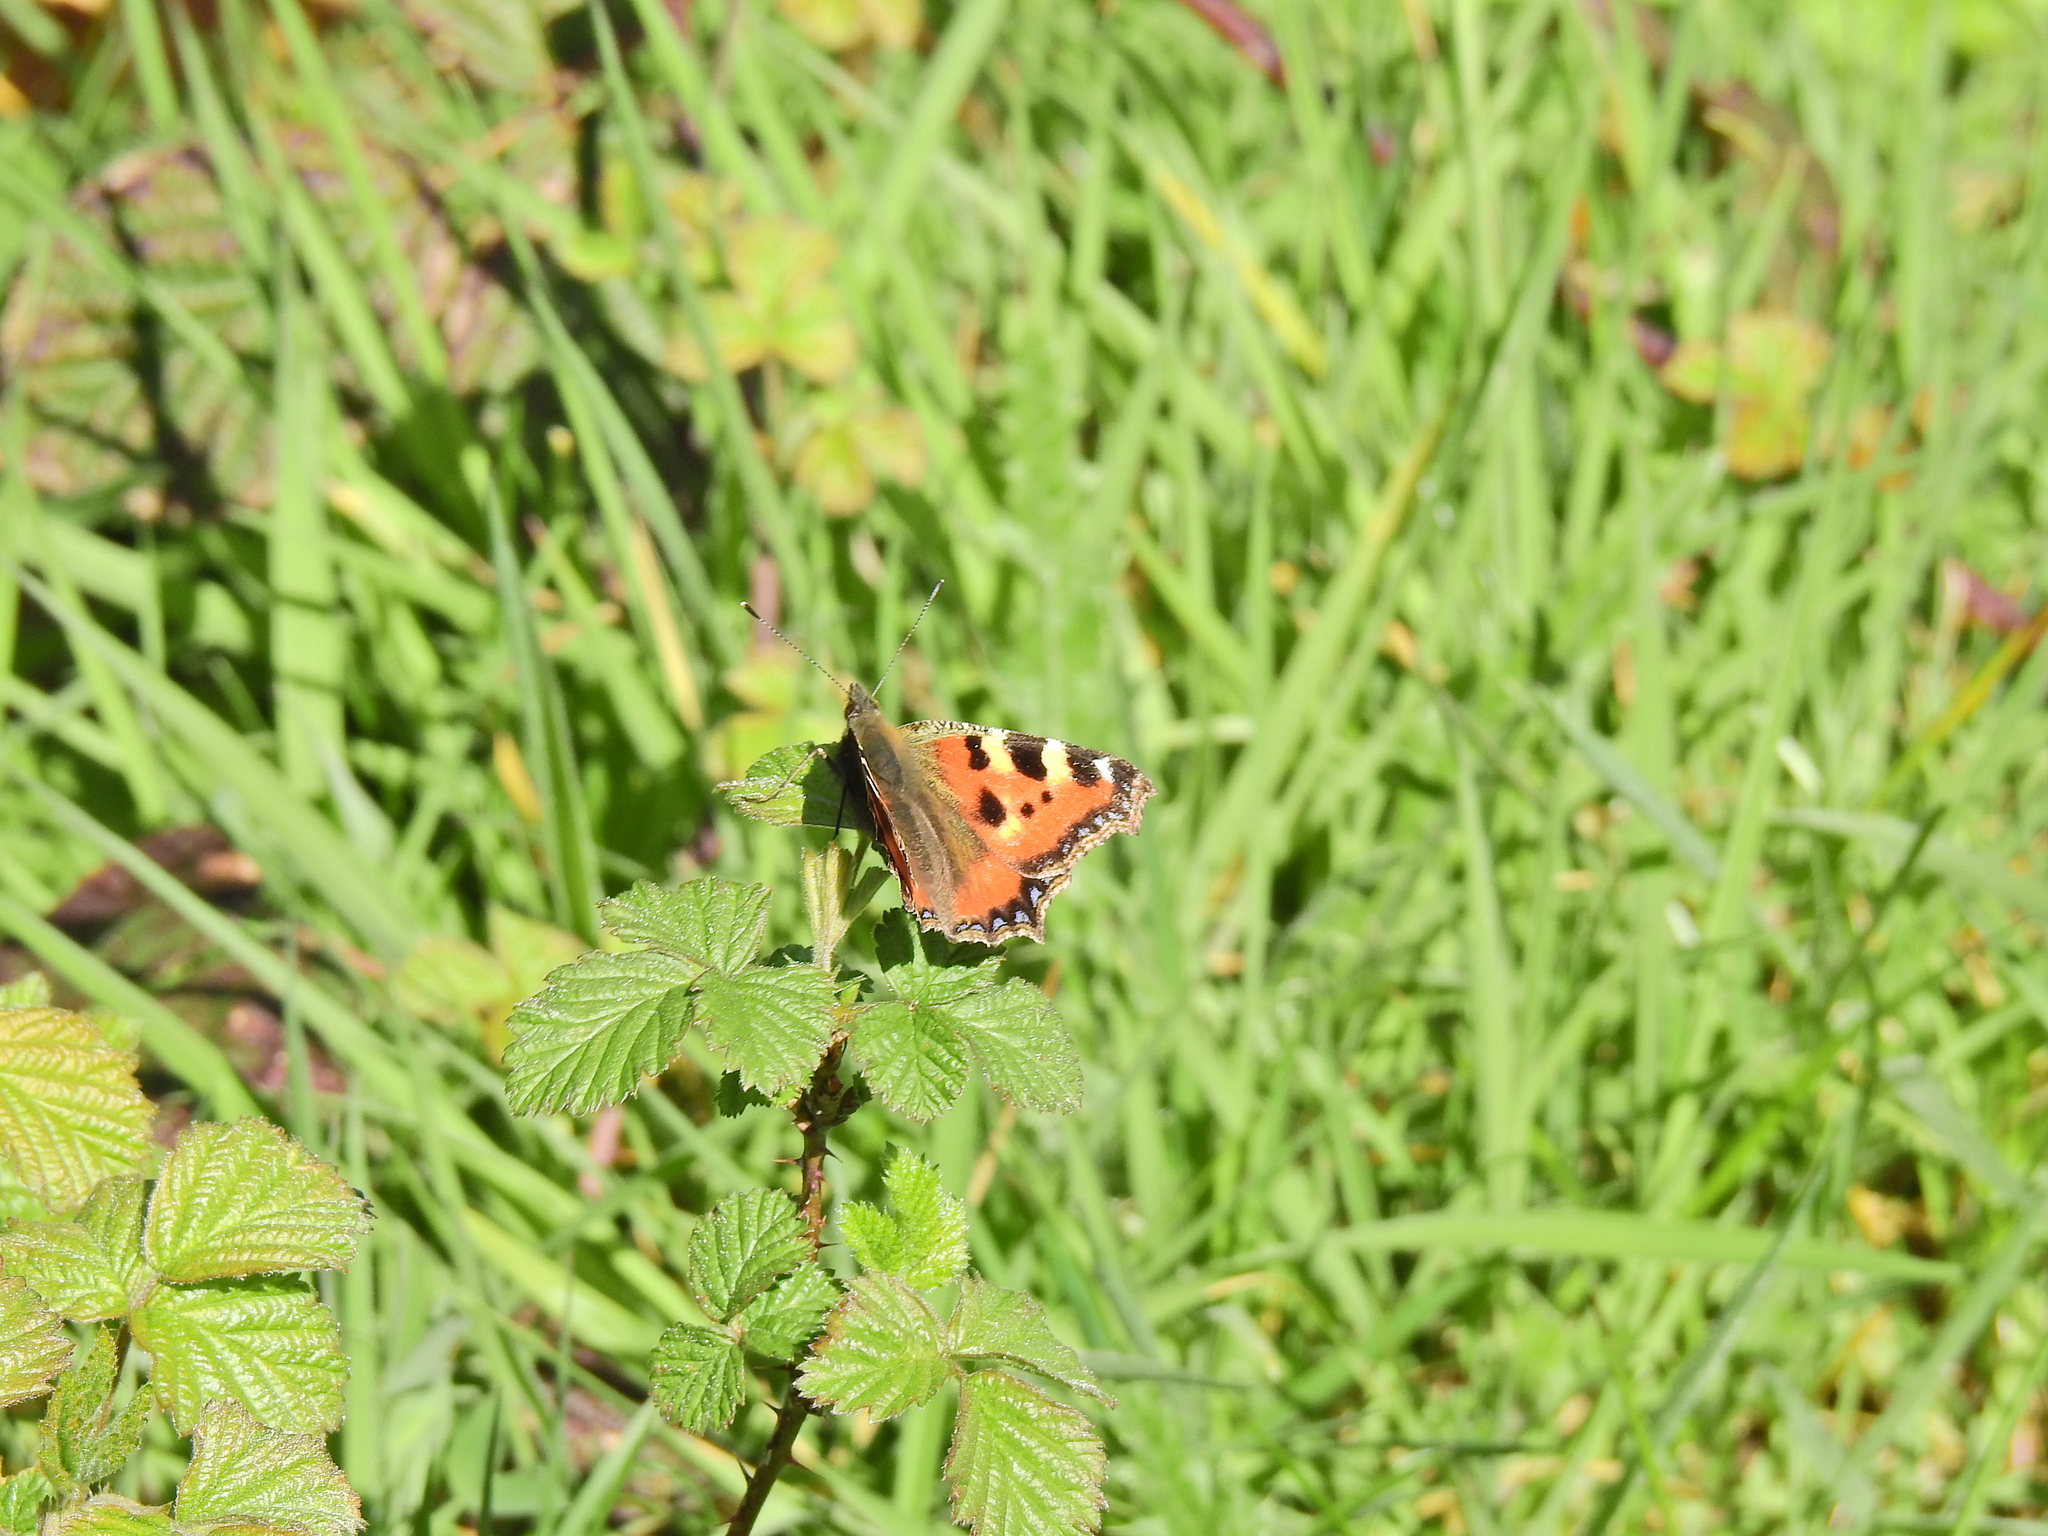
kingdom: Animalia
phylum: Arthropoda
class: Insecta
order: Lepidoptera
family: Nymphalidae
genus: Aglais
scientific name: Aglais urticae
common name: Small tortoiseshell
